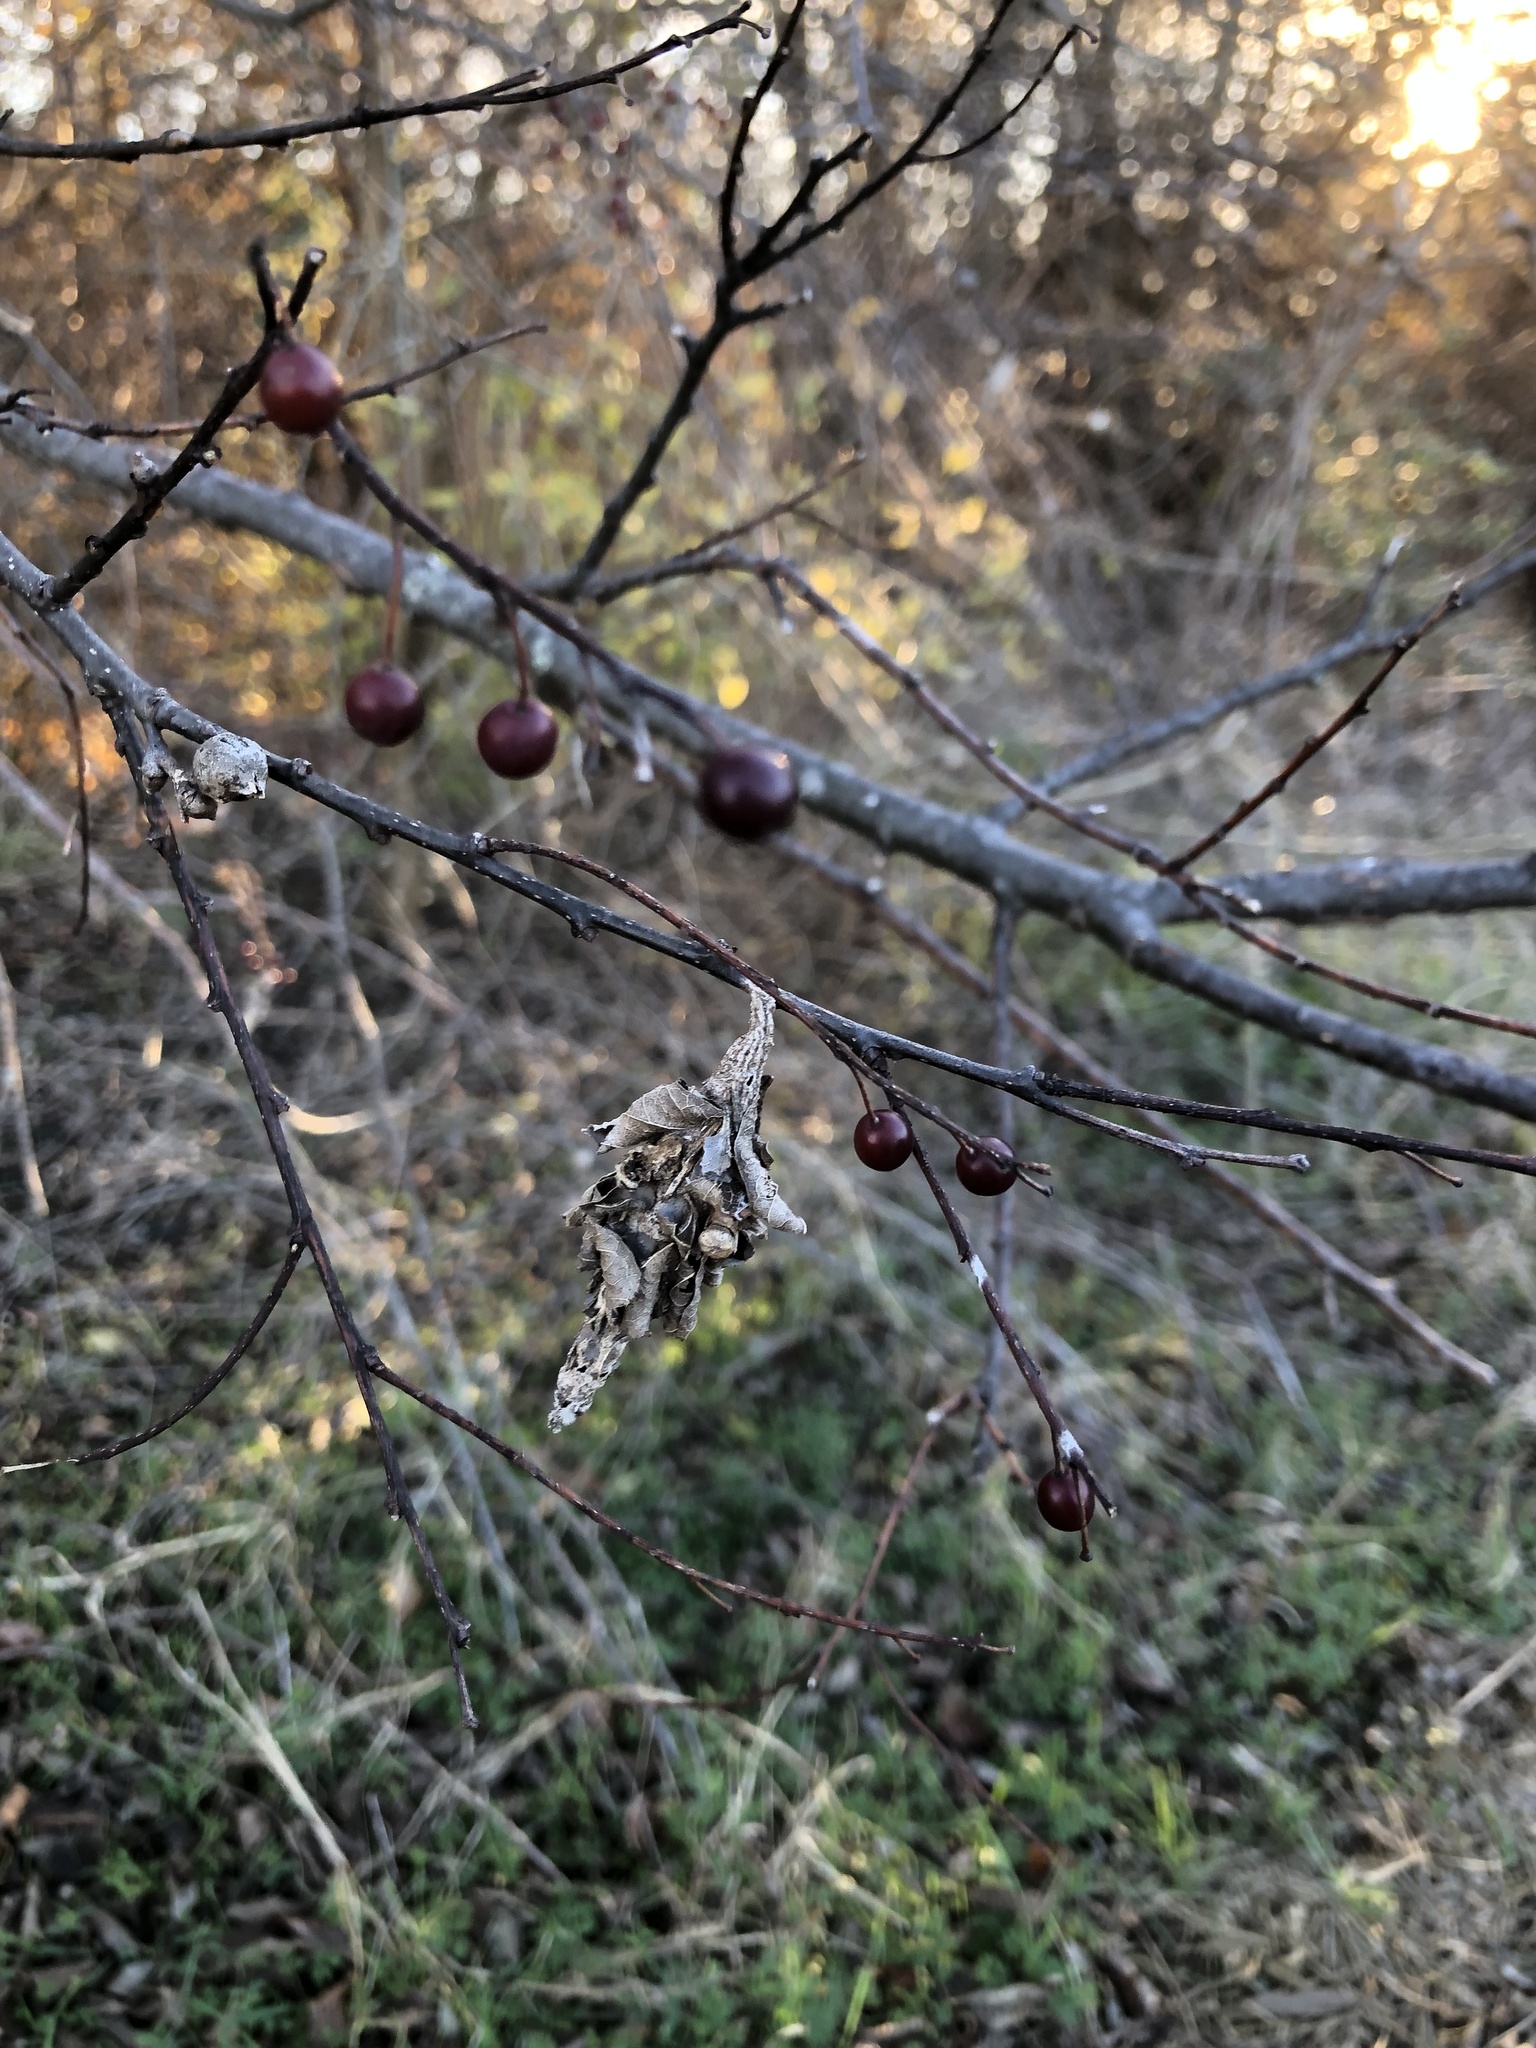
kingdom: Animalia
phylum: Arthropoda
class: Insecta
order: Lepidoptera
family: Psychidae
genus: Thyridopteryx
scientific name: Thyridopteryx ephemeraeformis
